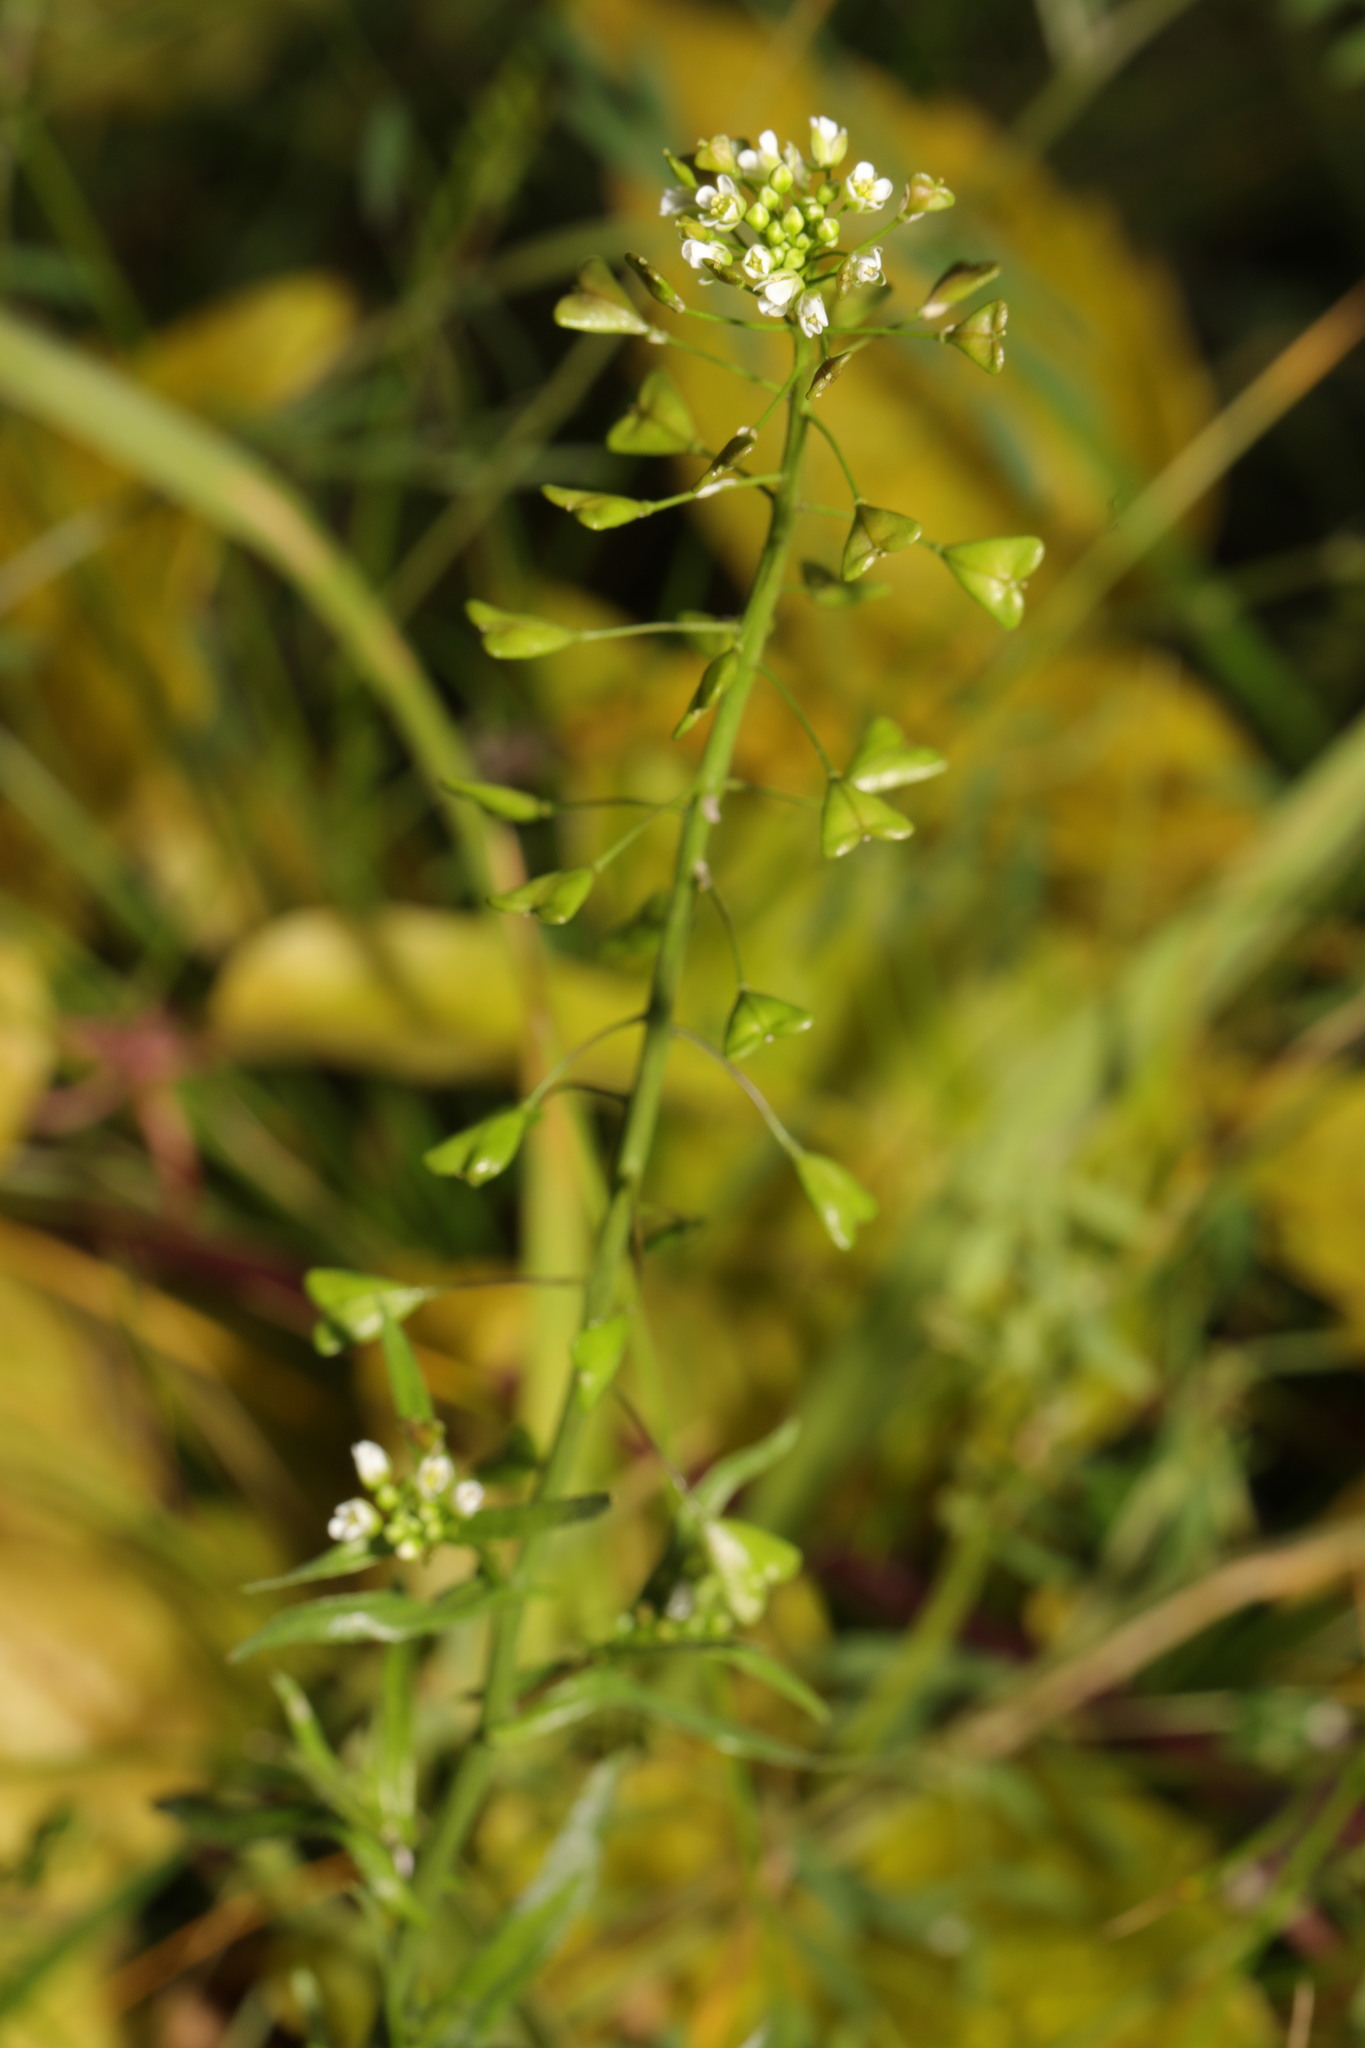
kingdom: Plantae
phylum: Tracheophyta
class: Magnoliopsida
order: Brassicales
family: Brassicaceae
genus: Capsella
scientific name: Capsella bursa-pastoris
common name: Shepherd's purse
